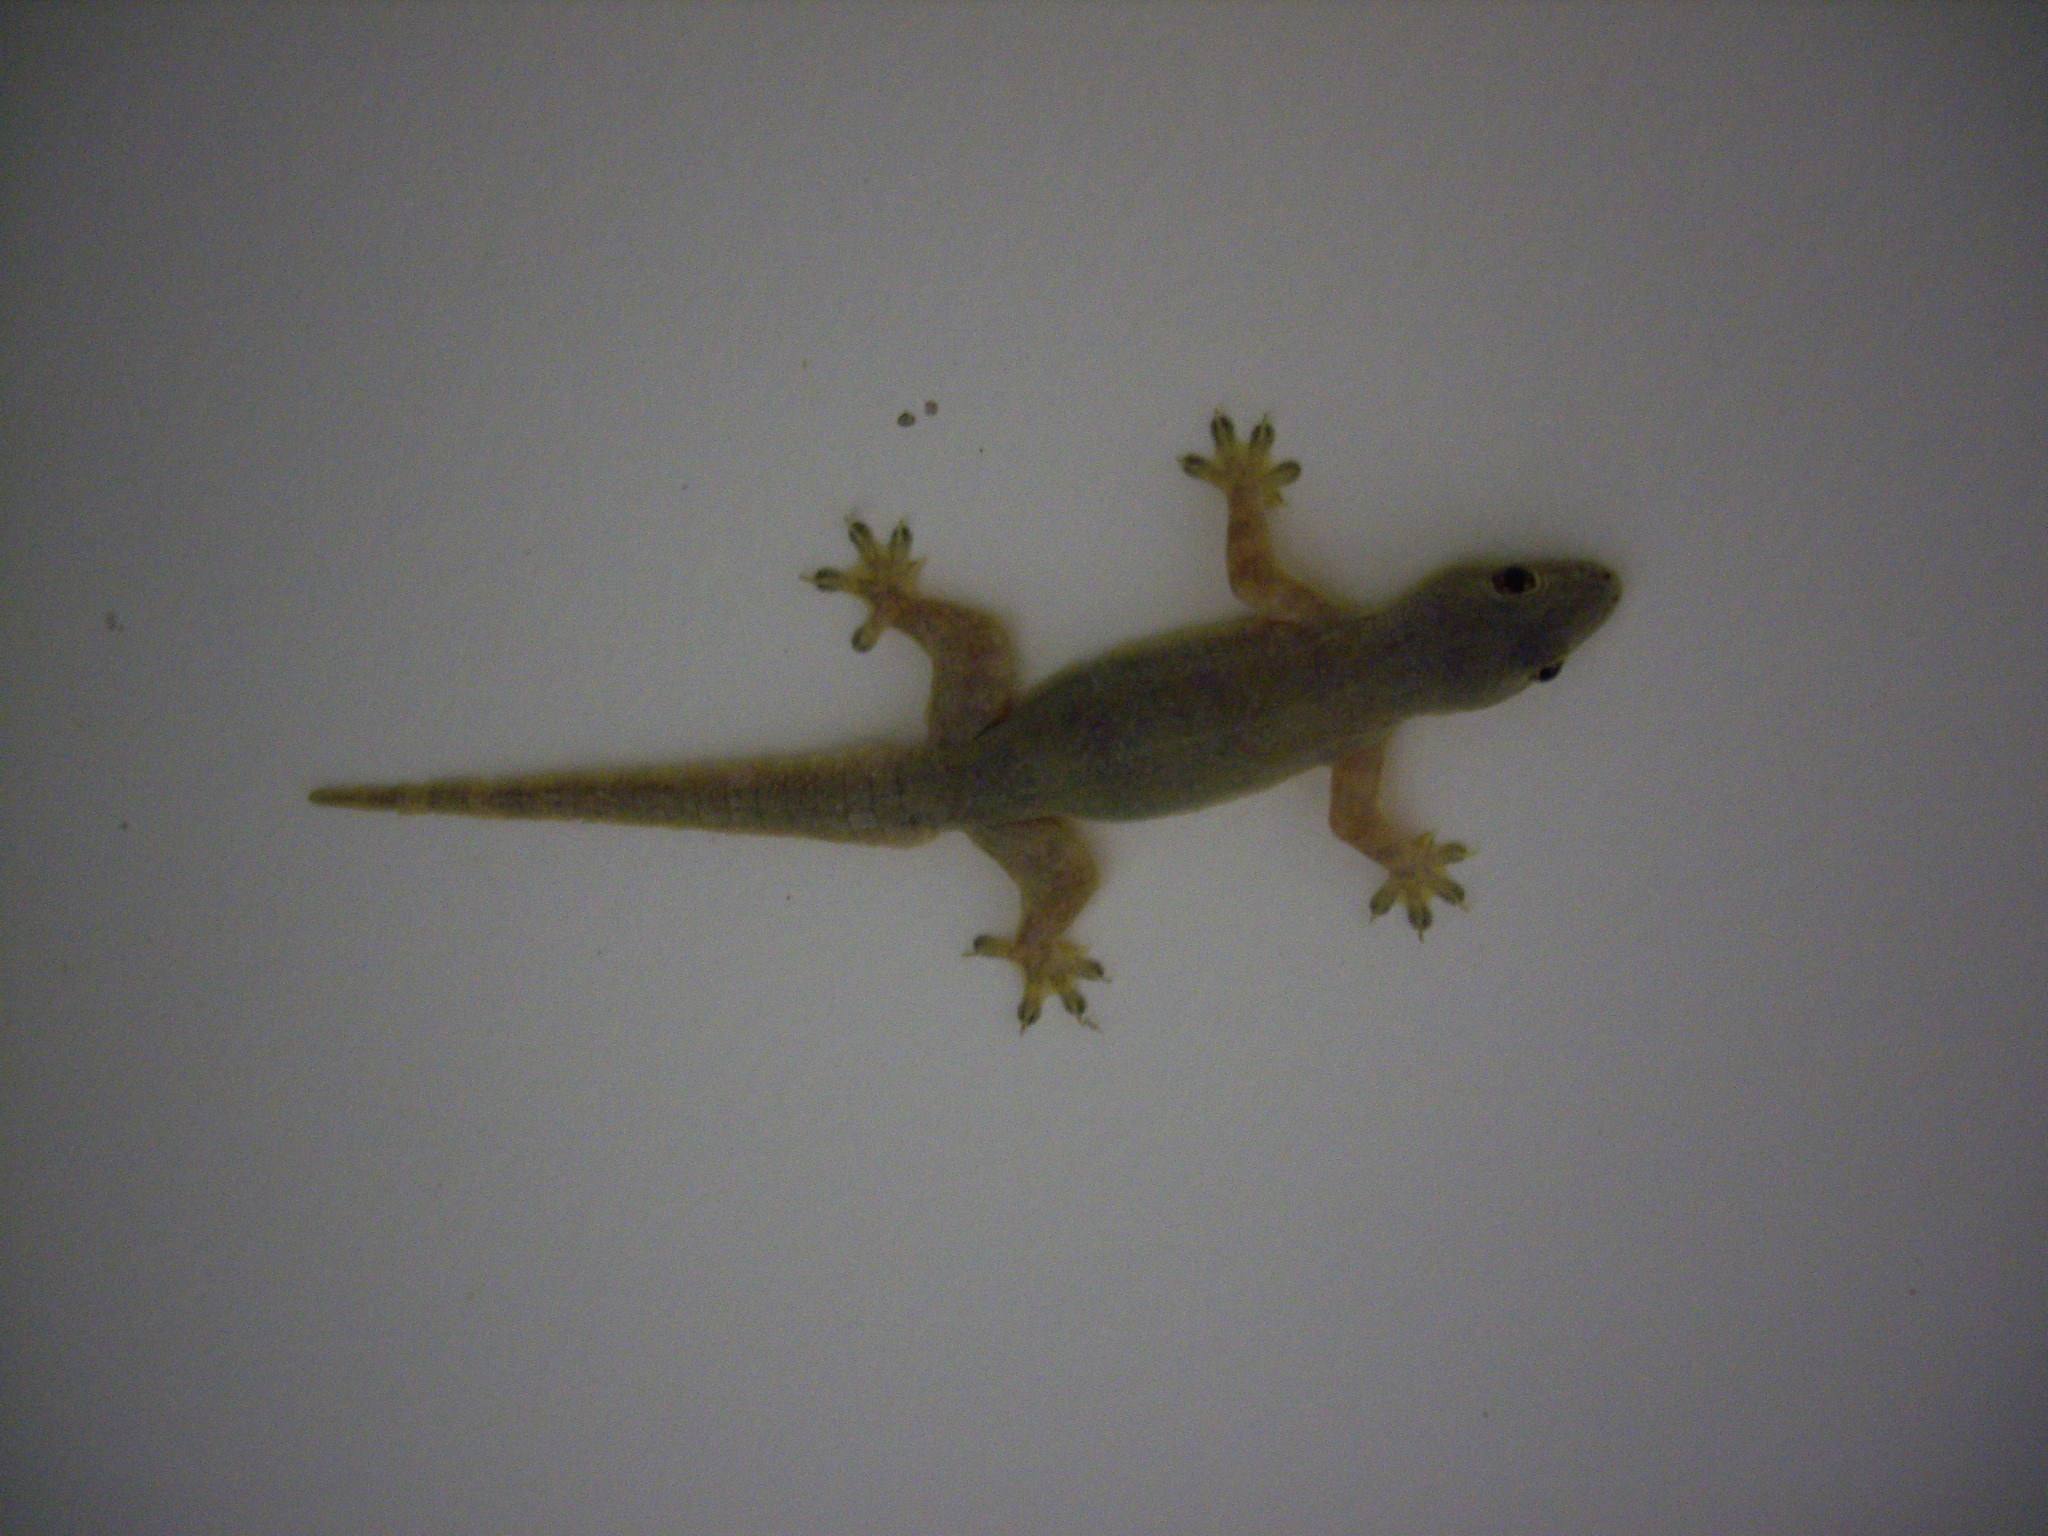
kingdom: Animalia
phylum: Chordata
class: Squamata
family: Gekkonidae
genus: Hemidactylus
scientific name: Hemidactylus platyurus
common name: Flat-tailed house gecko
